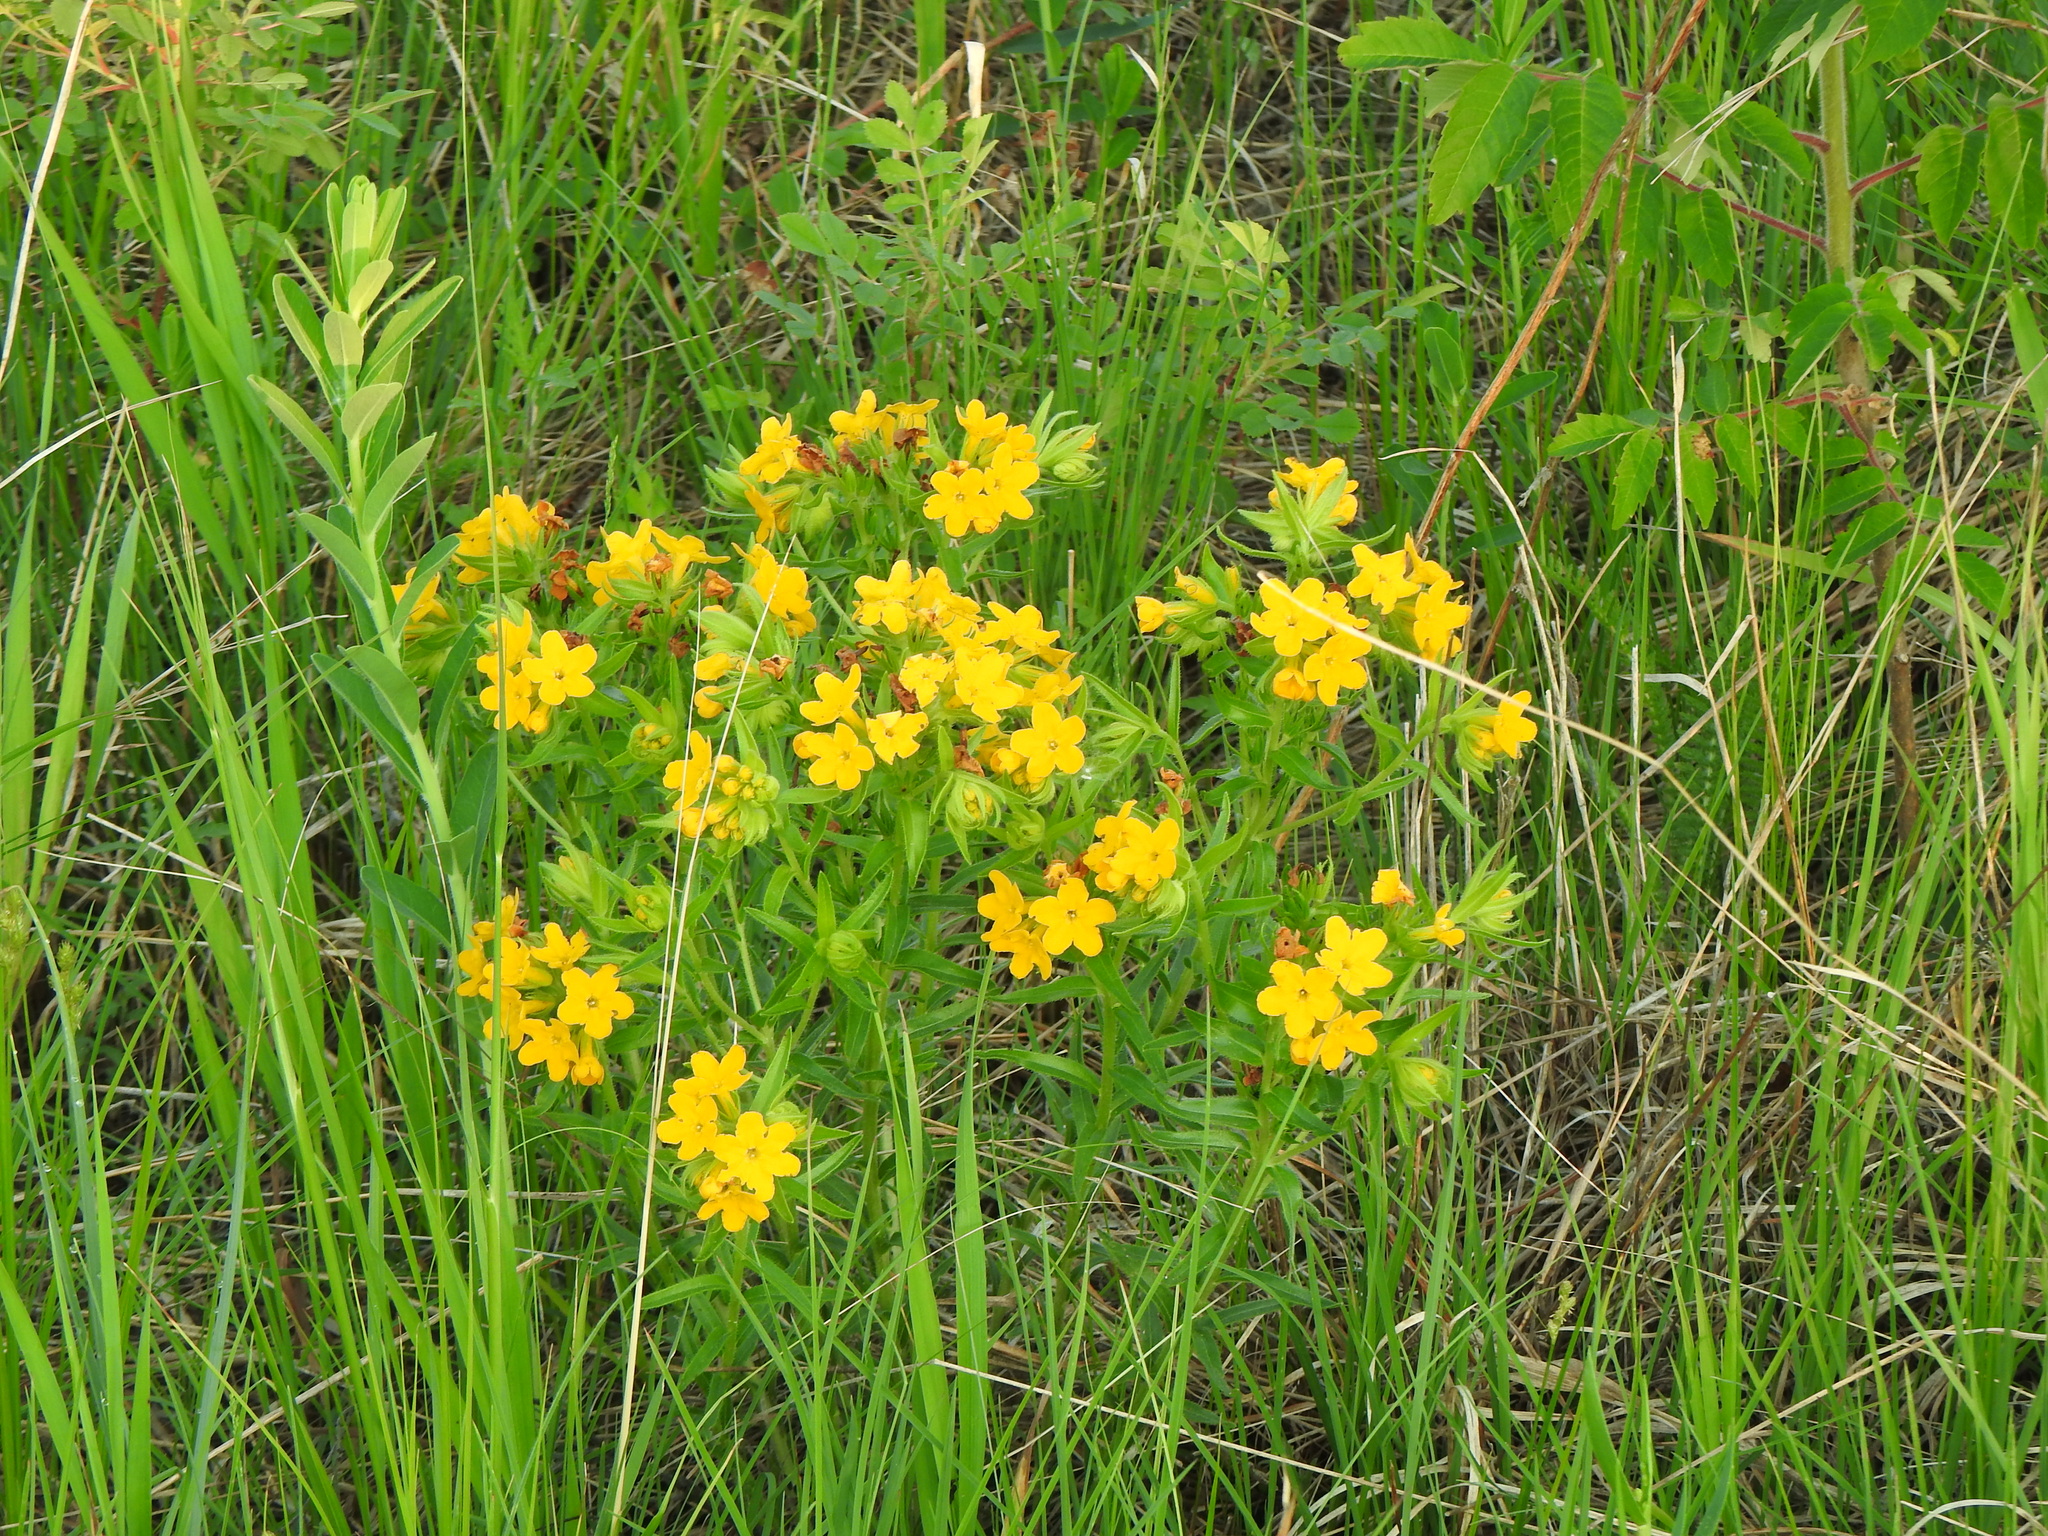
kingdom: Plantae
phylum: Tracheophyta
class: Magnoliopsida
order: Boraginales
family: Boraginaceae
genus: Lithospermum
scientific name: Lithospermum caroliniense
